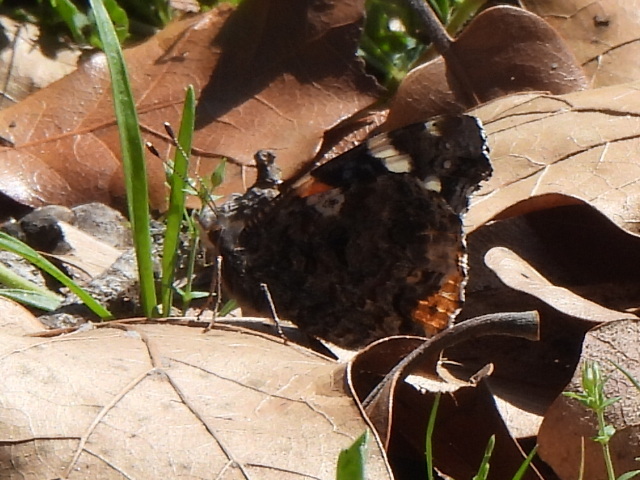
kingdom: Animalia
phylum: Arthropoda
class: Insecta
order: Lepidoptera
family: Nymphalidae
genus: Vanessa
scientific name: Vanessa atalanta
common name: Red admiral
